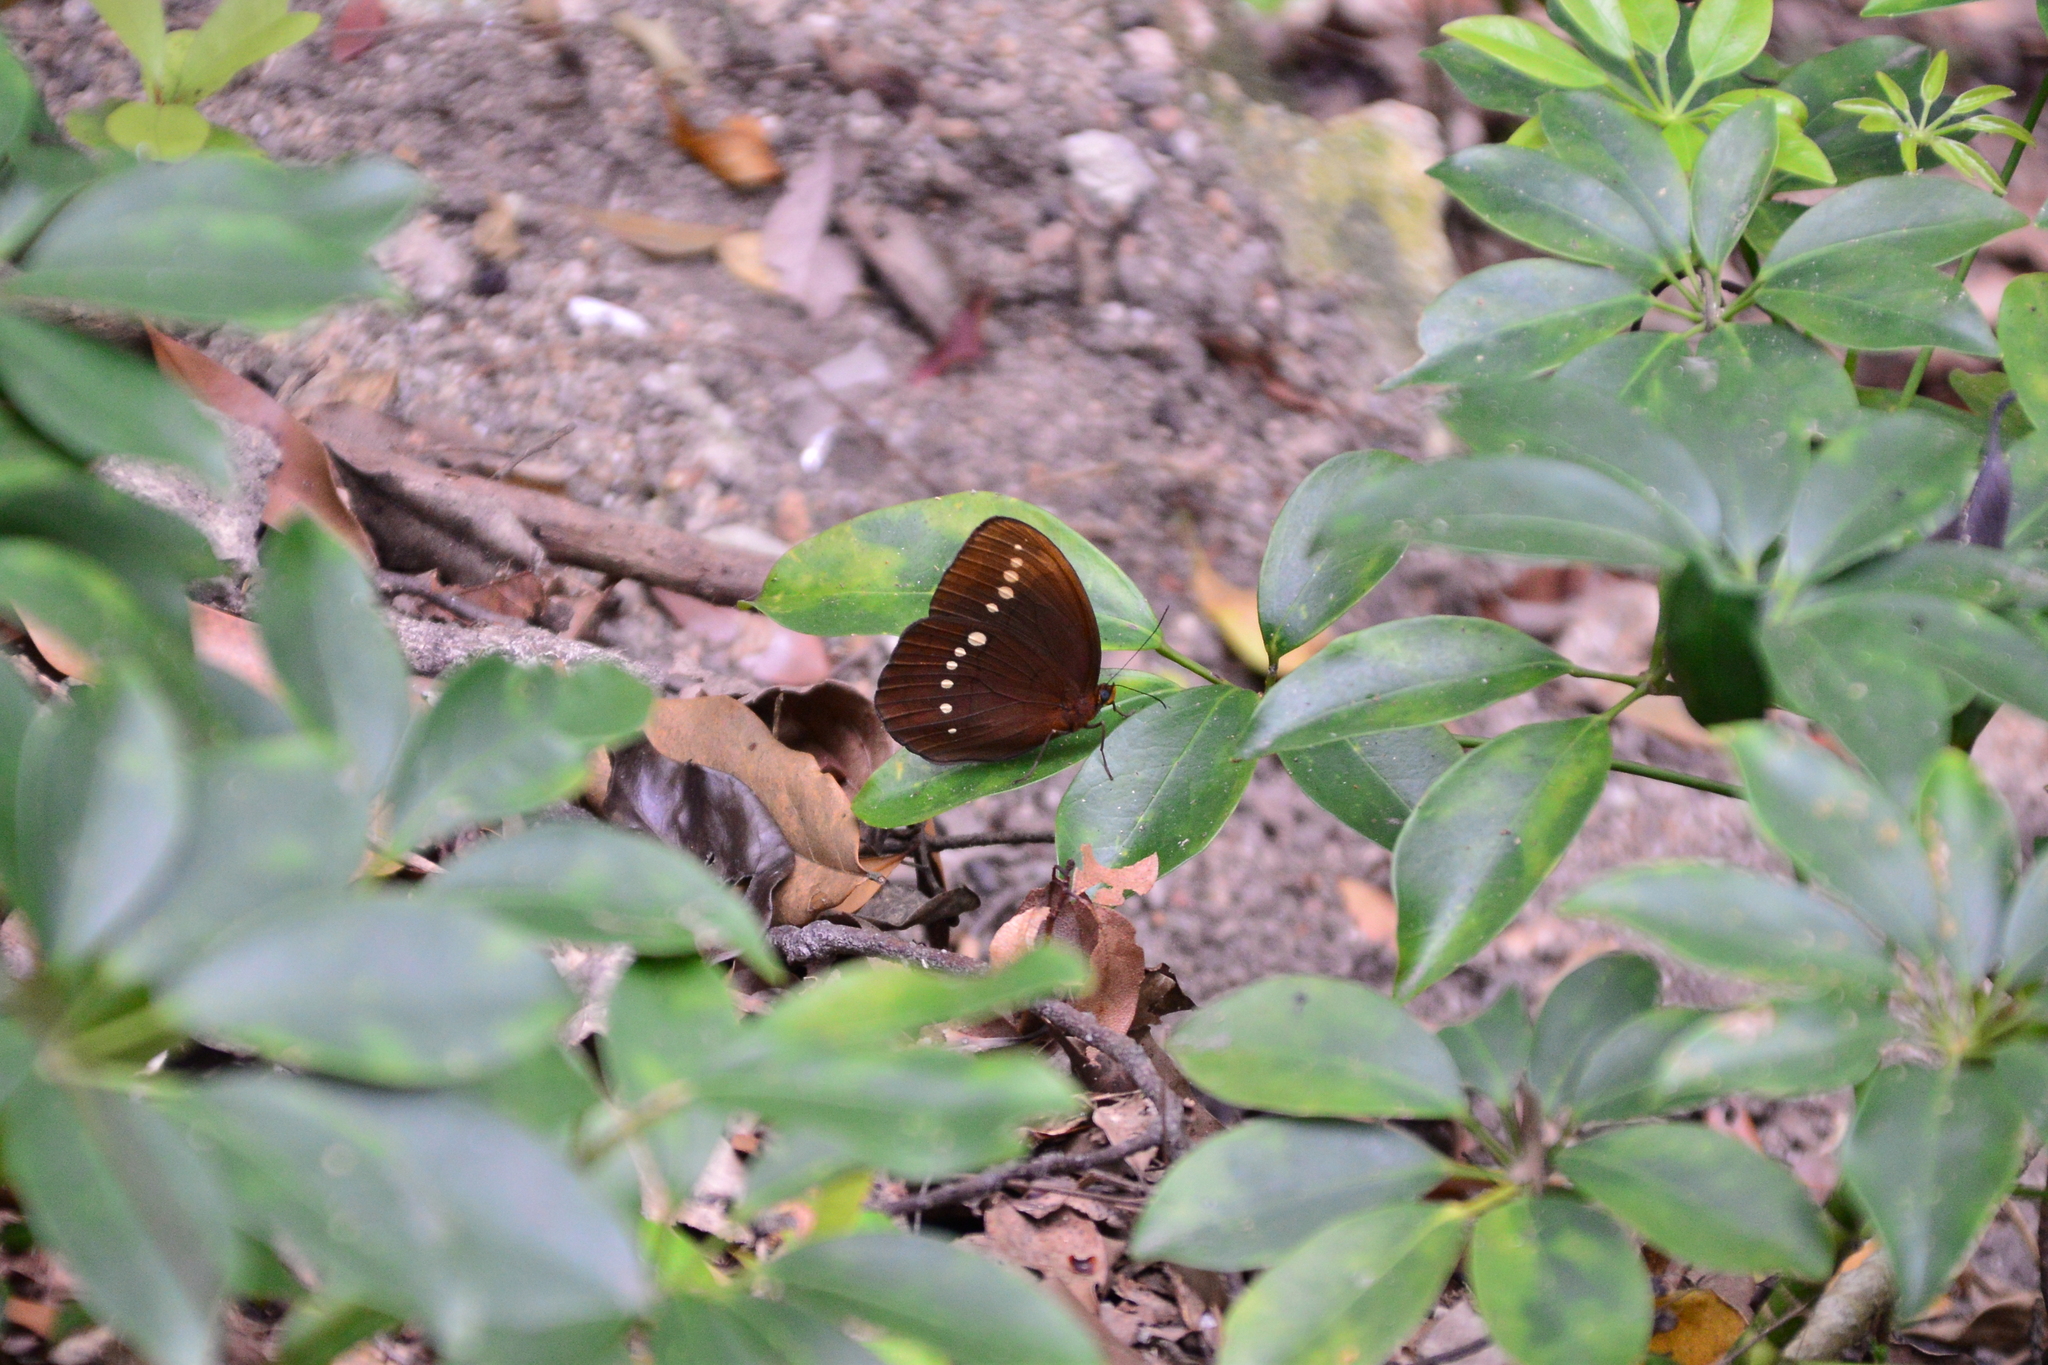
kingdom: Animalia
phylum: Arthropoda
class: Insecta
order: Lepidoptera
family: Nymphalidae
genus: Faunis
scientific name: Faunis eumeus
